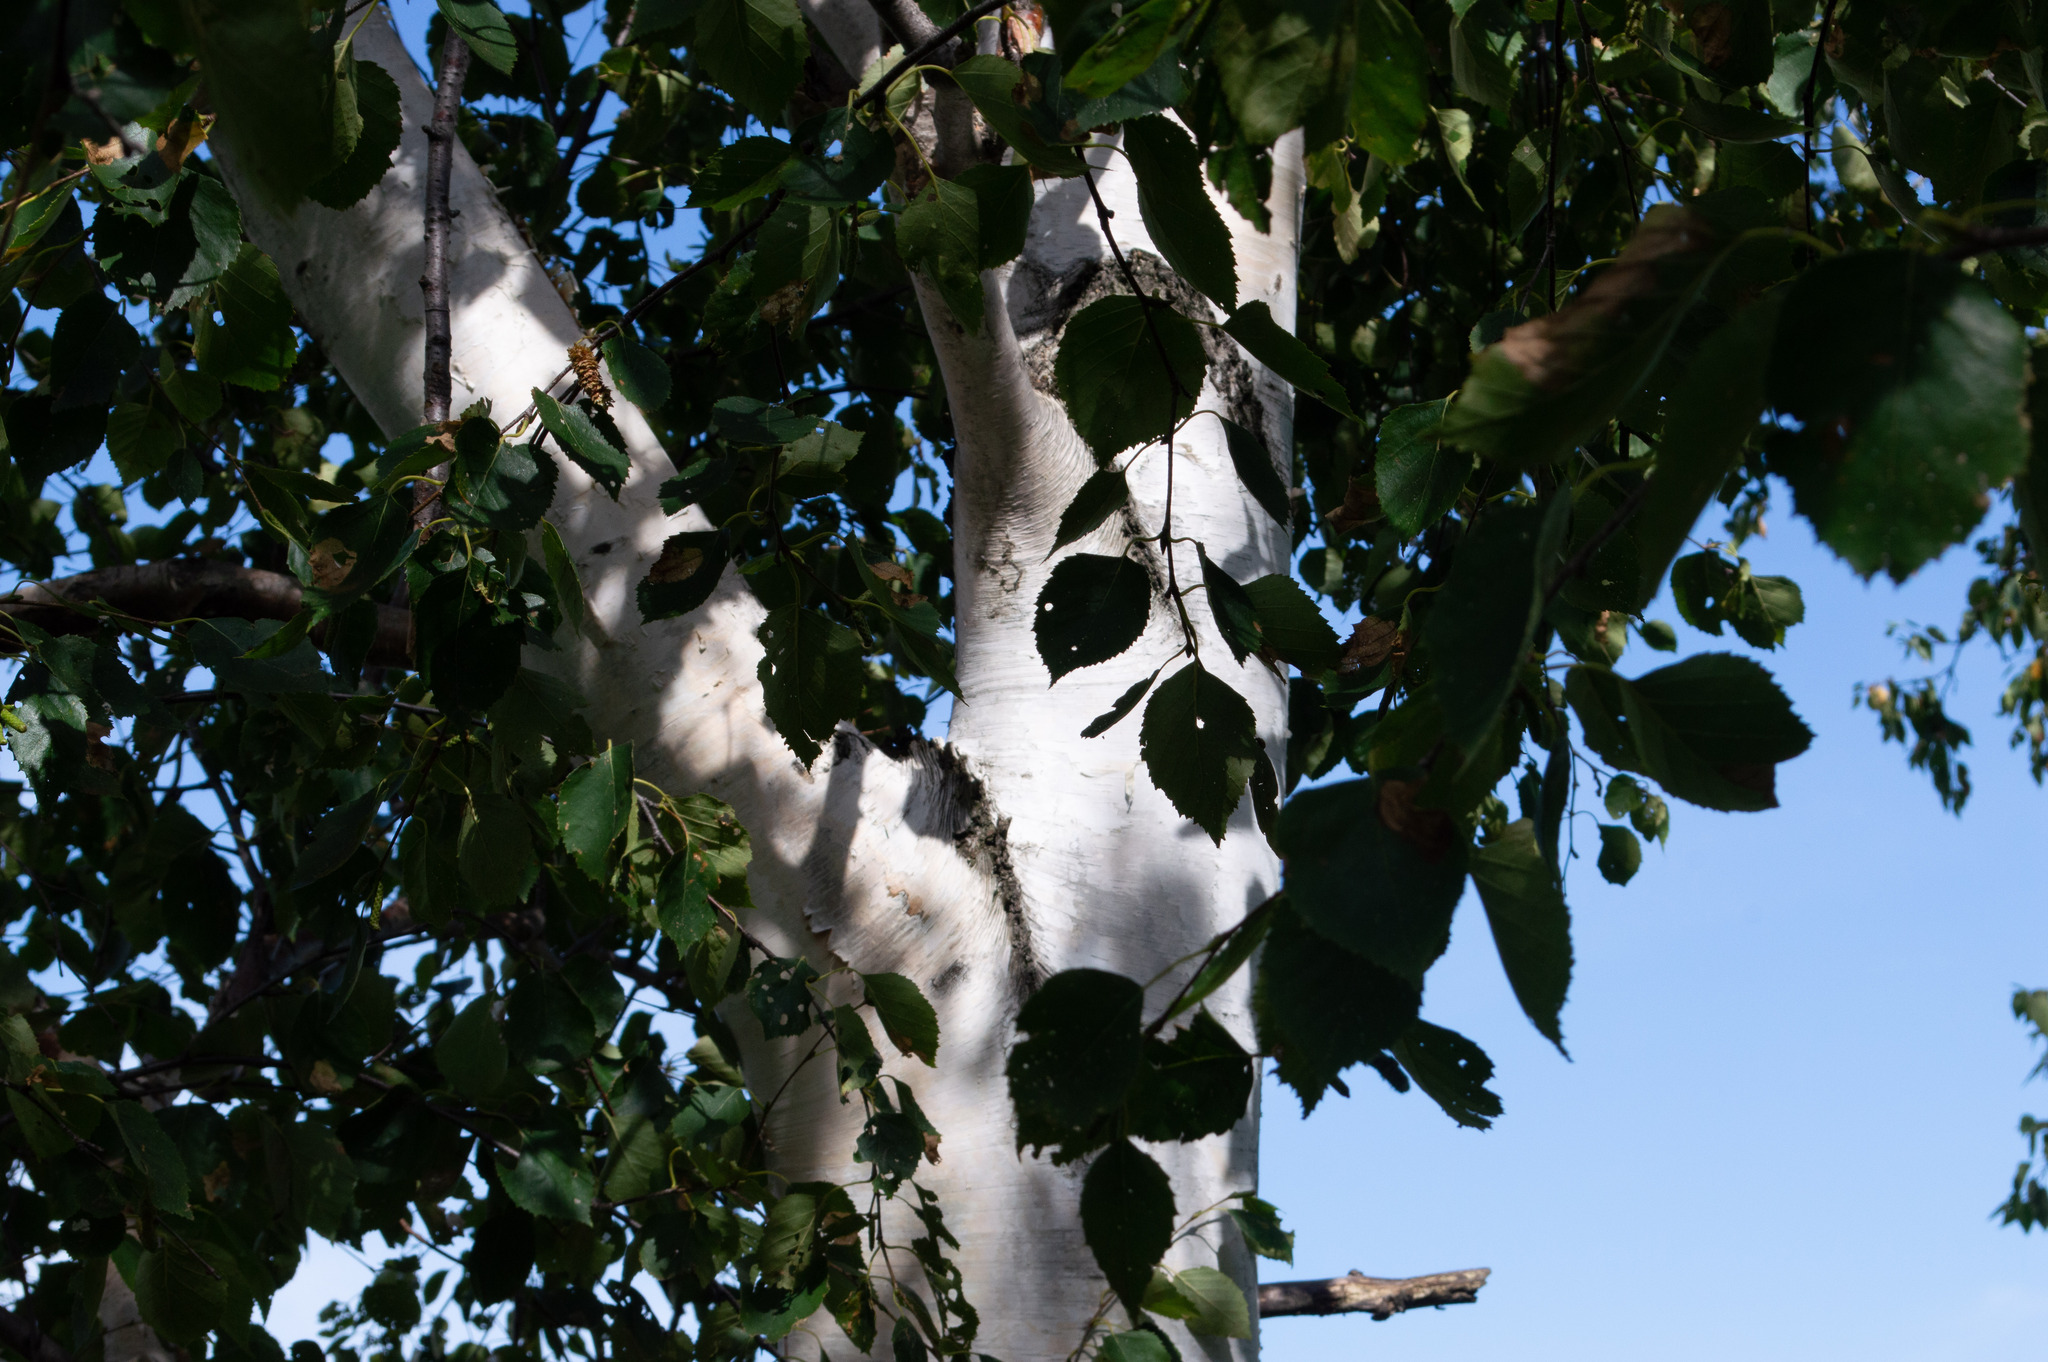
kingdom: Plantae
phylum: Tracheophyta
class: Magnoliopsida
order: Fagales
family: Betulaceae
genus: Betula
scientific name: Betula papyrifera
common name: Paper birch
